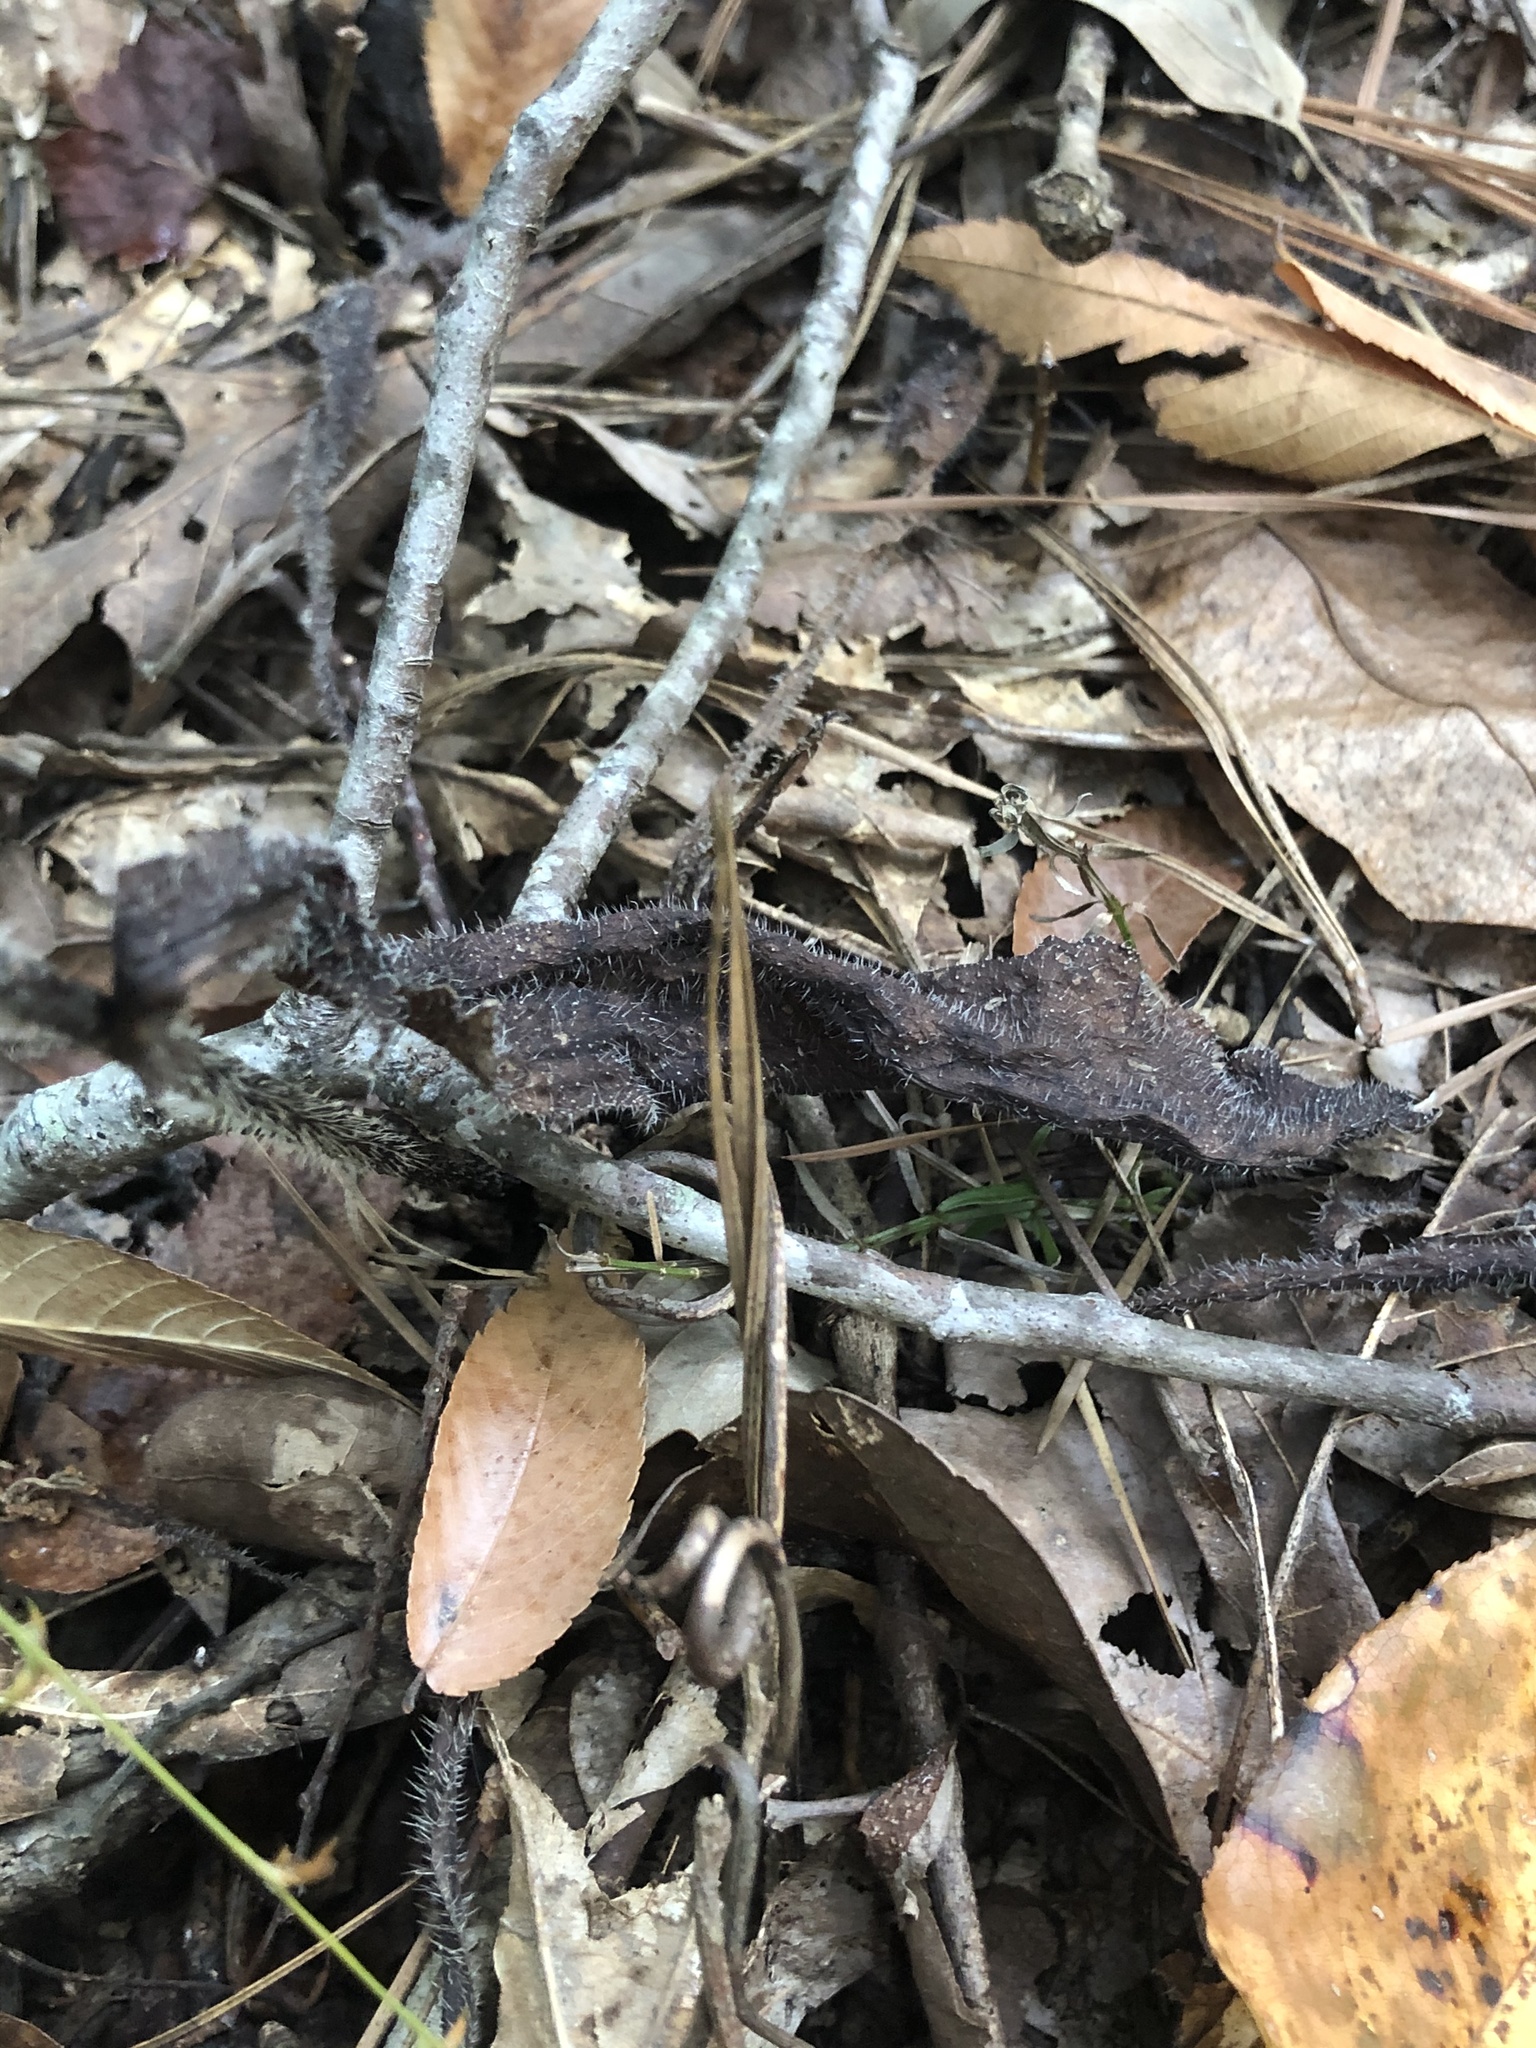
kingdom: Plantae
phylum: Tracheophyta
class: Magnoliopsida
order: Boraginales
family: Boraginaceae
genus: Andersonglossum
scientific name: Andersonglossum virginianum
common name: Wild comfrey
